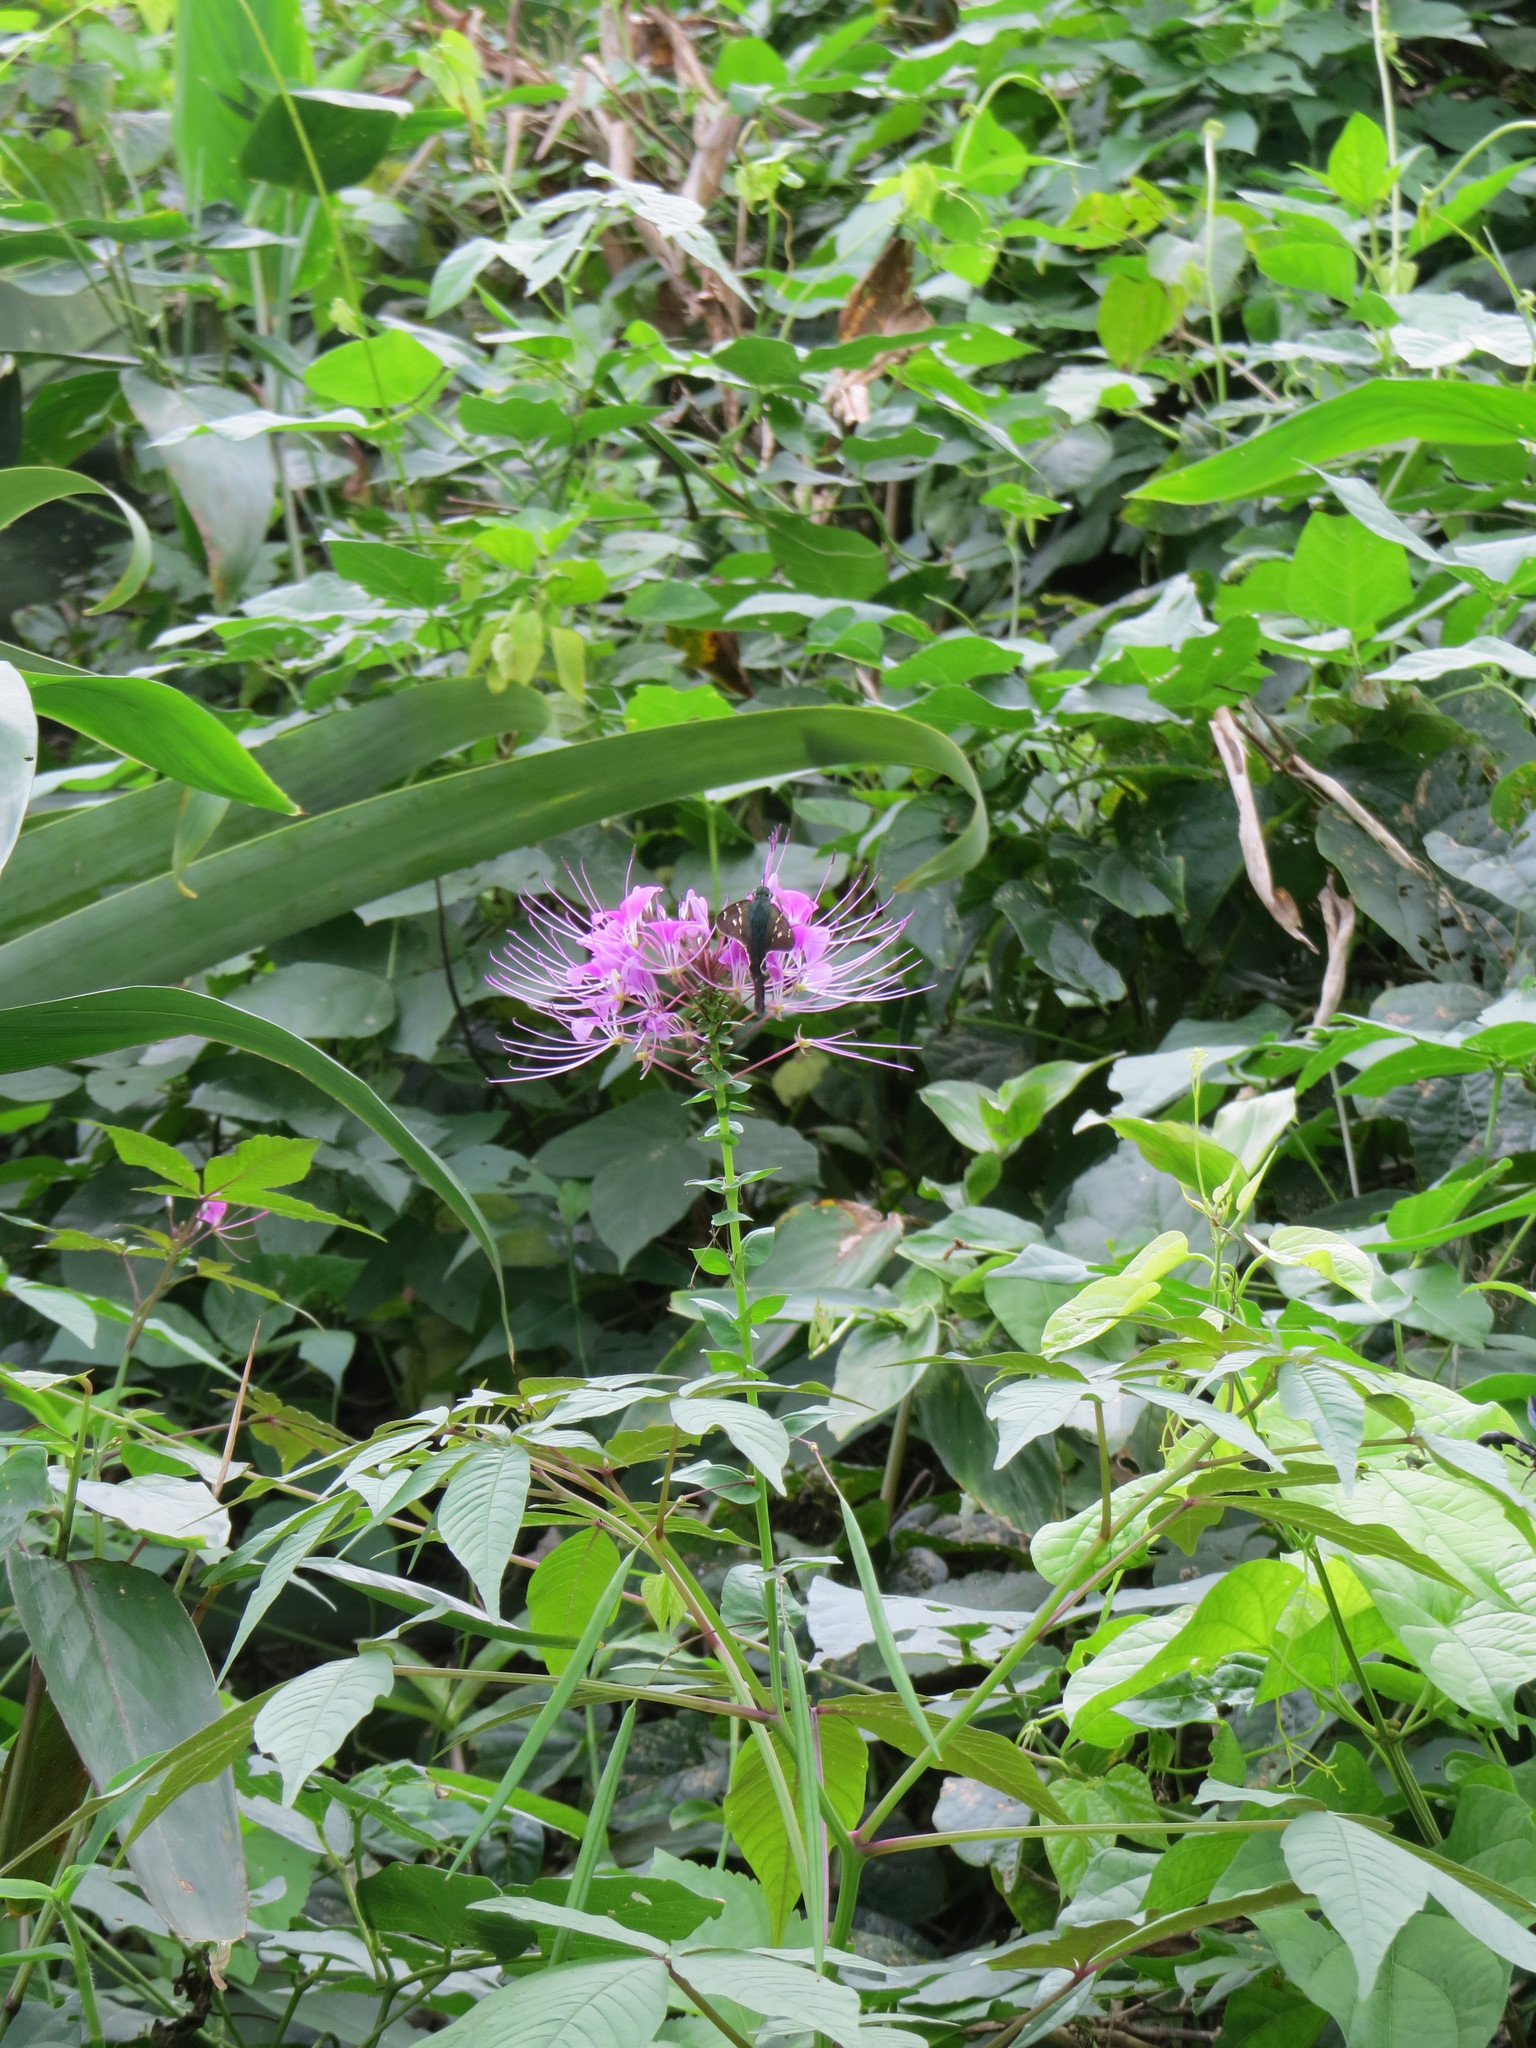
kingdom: Plantae
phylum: Tracheophyta
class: Magnoliopsida
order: Brassicales
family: Cleomaceae
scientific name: Cleomaceae
